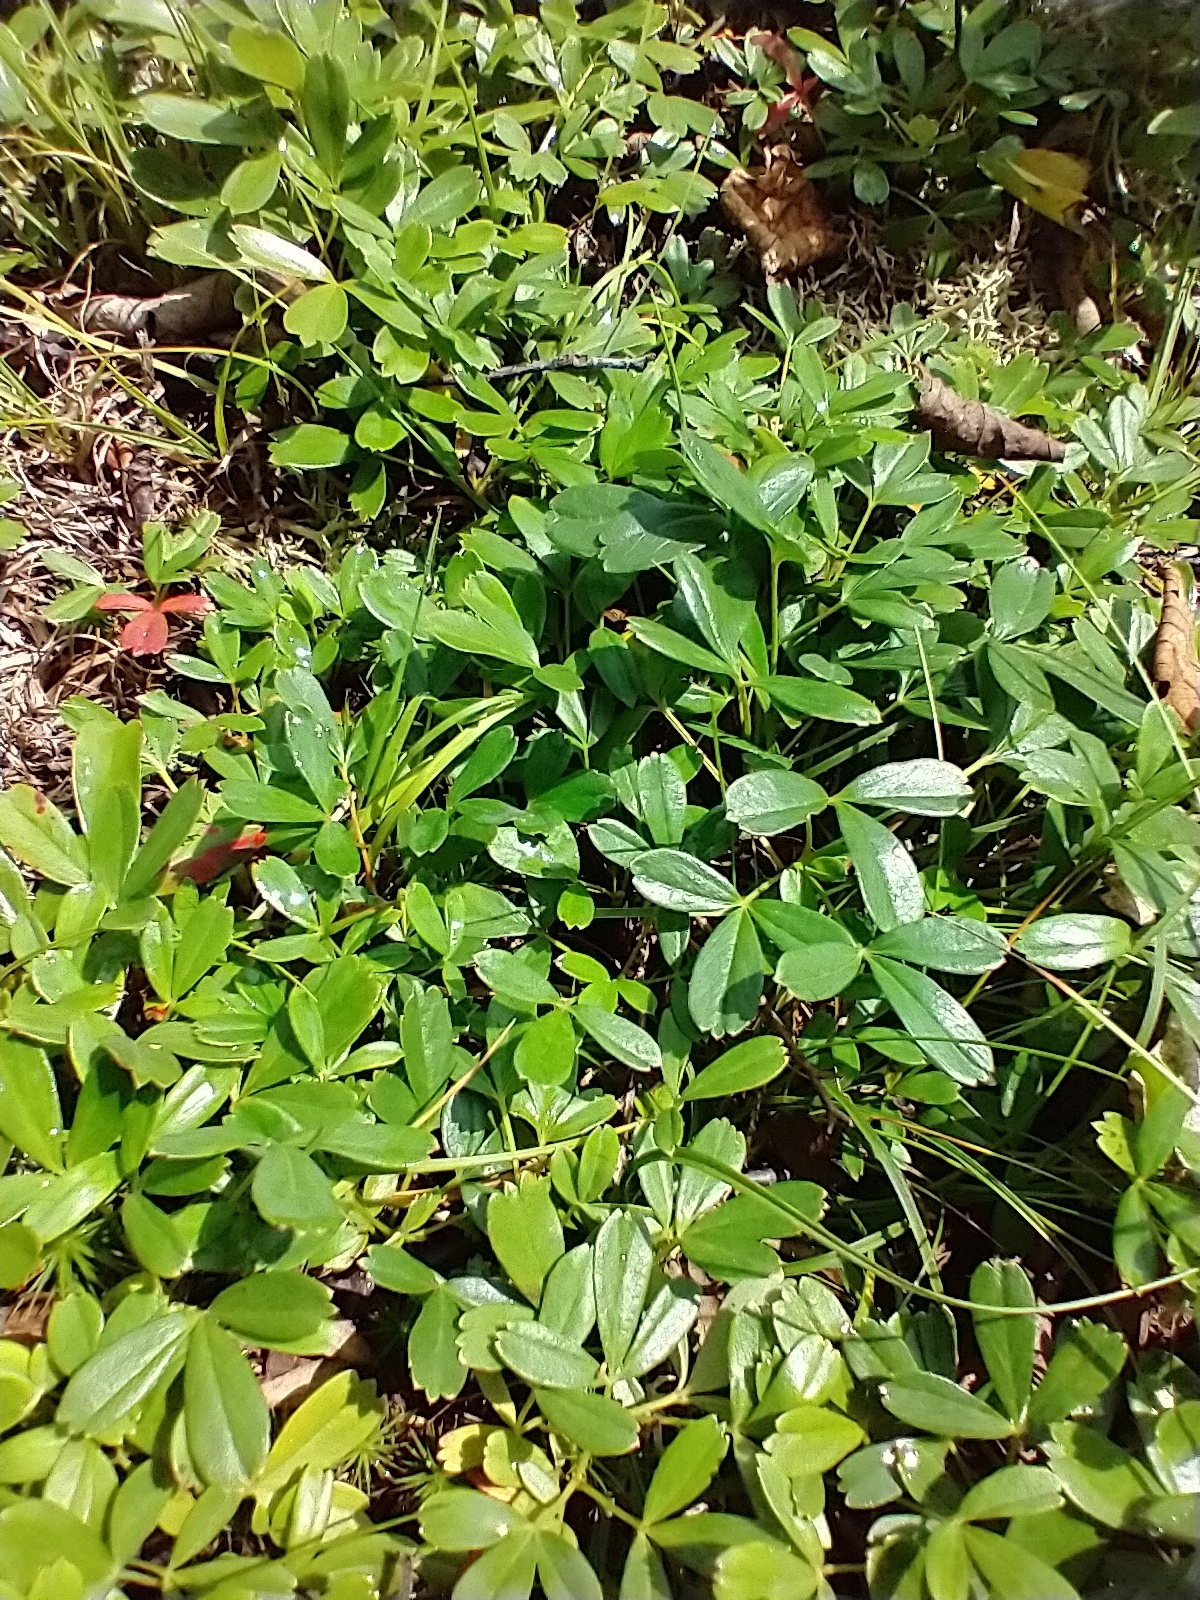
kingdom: Plantae
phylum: Tracheophyta
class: Magnoliopsida
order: Rosales
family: Rosaceae
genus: Sibbaldia
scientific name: Sibbaldia tridentata
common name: Three-toothed cinquefoil
